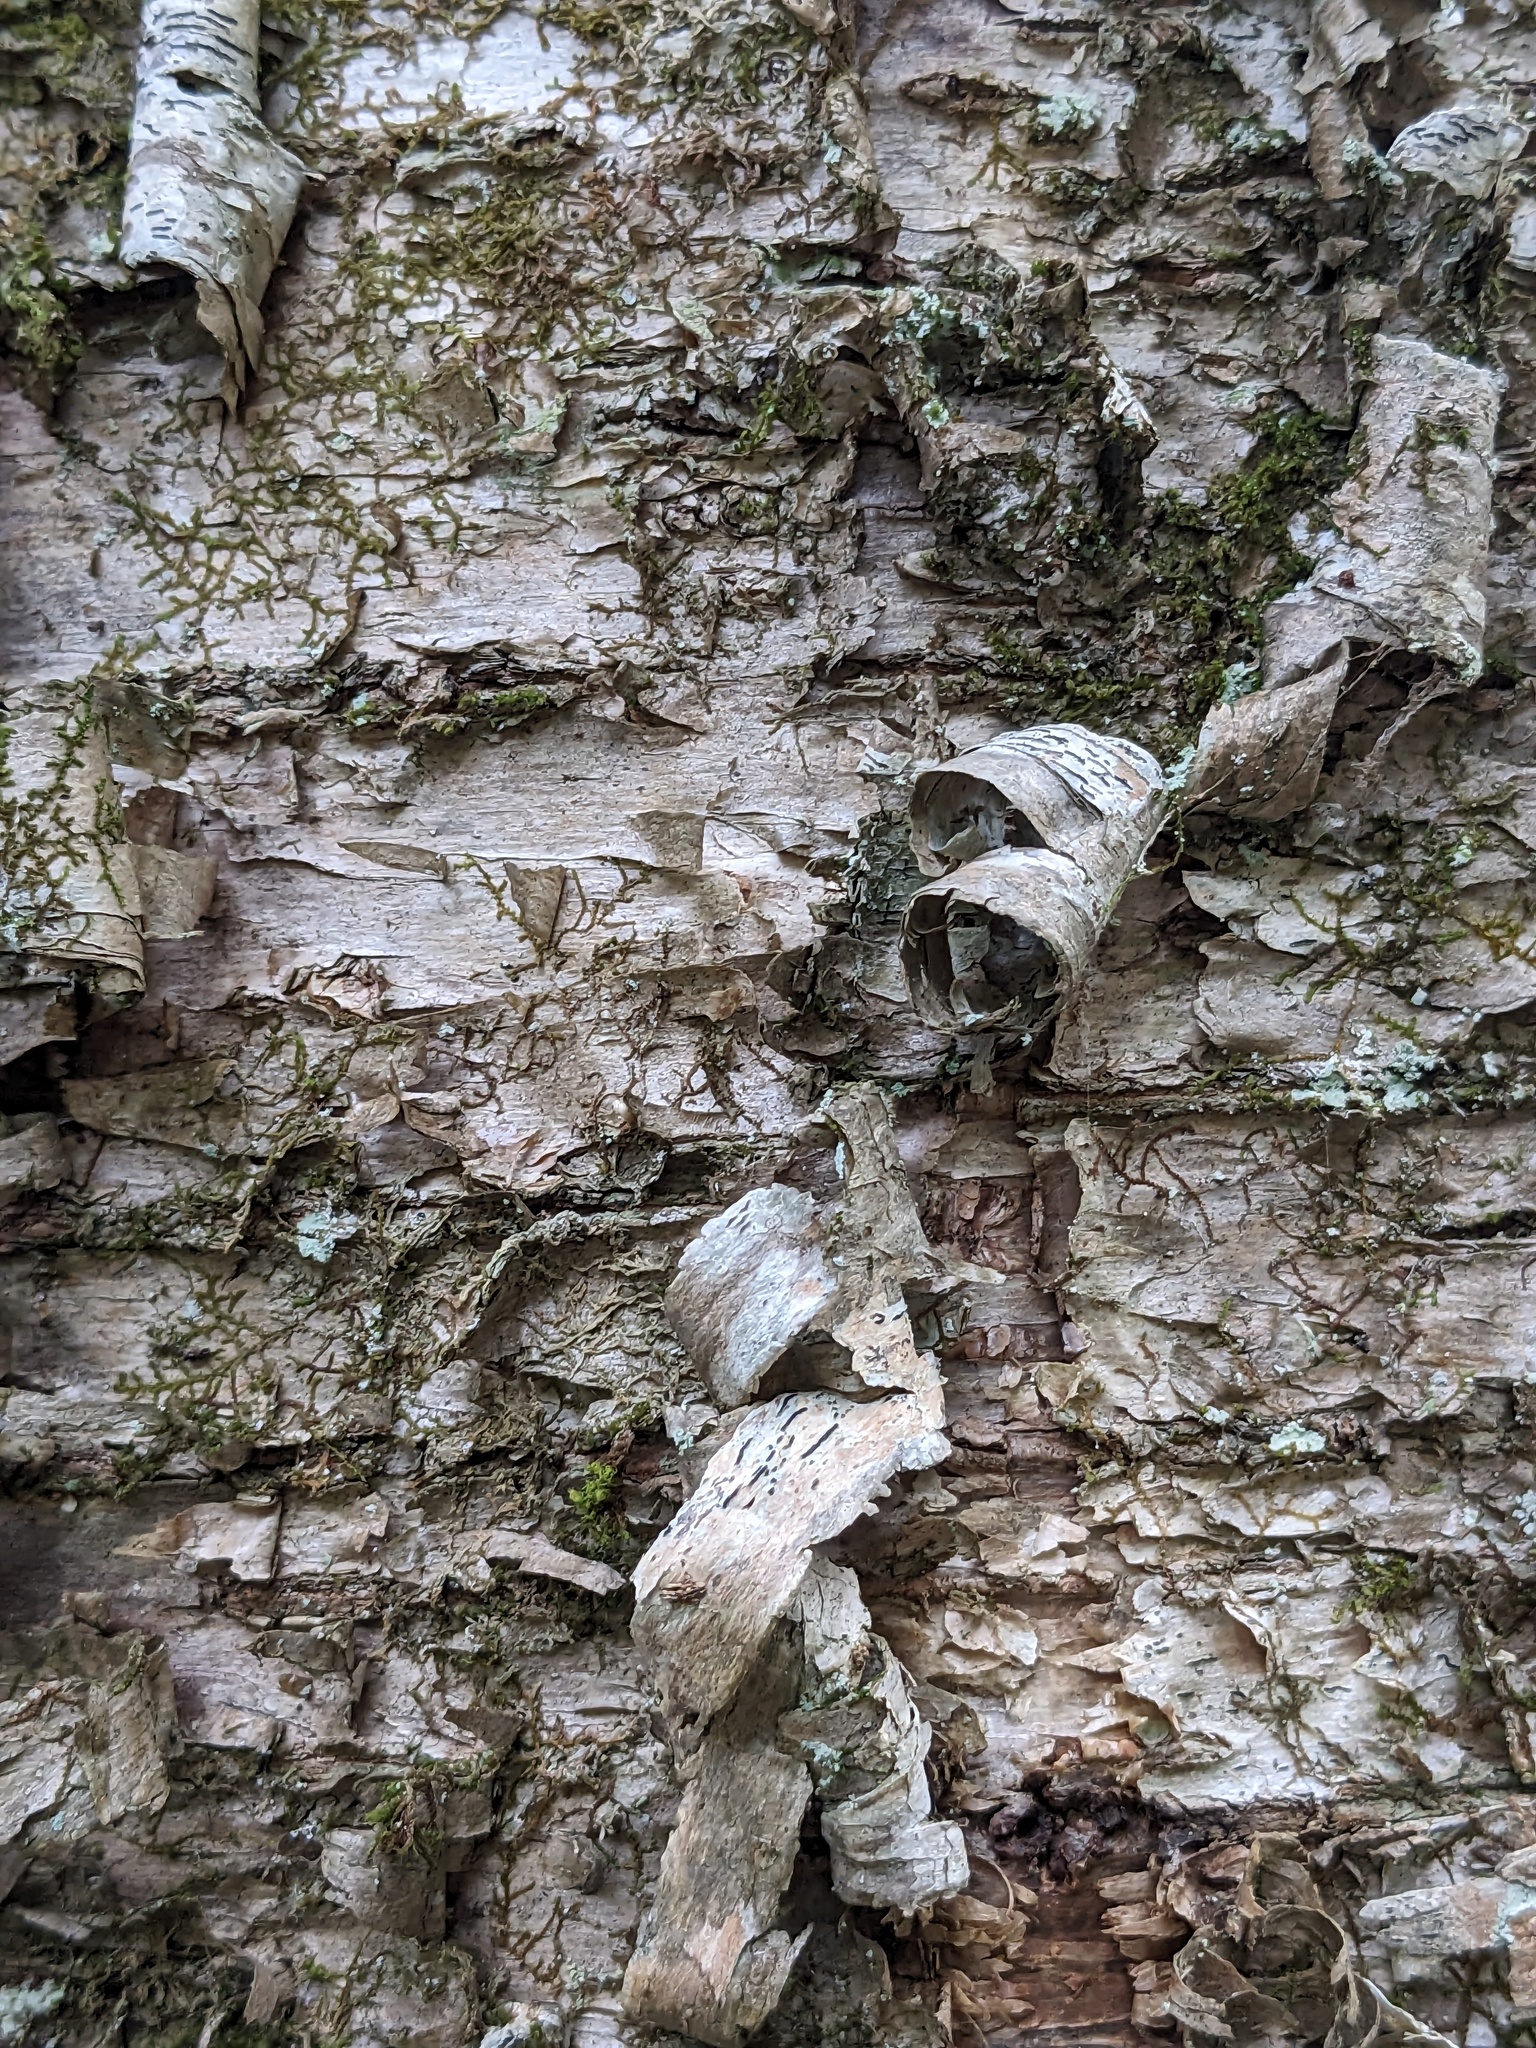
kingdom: Plantae
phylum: Tracheophyta
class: Magnoliopsida
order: Fagales
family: Betulaceae
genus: Betula
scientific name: Betula alleghaniensis
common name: Yellow birch
